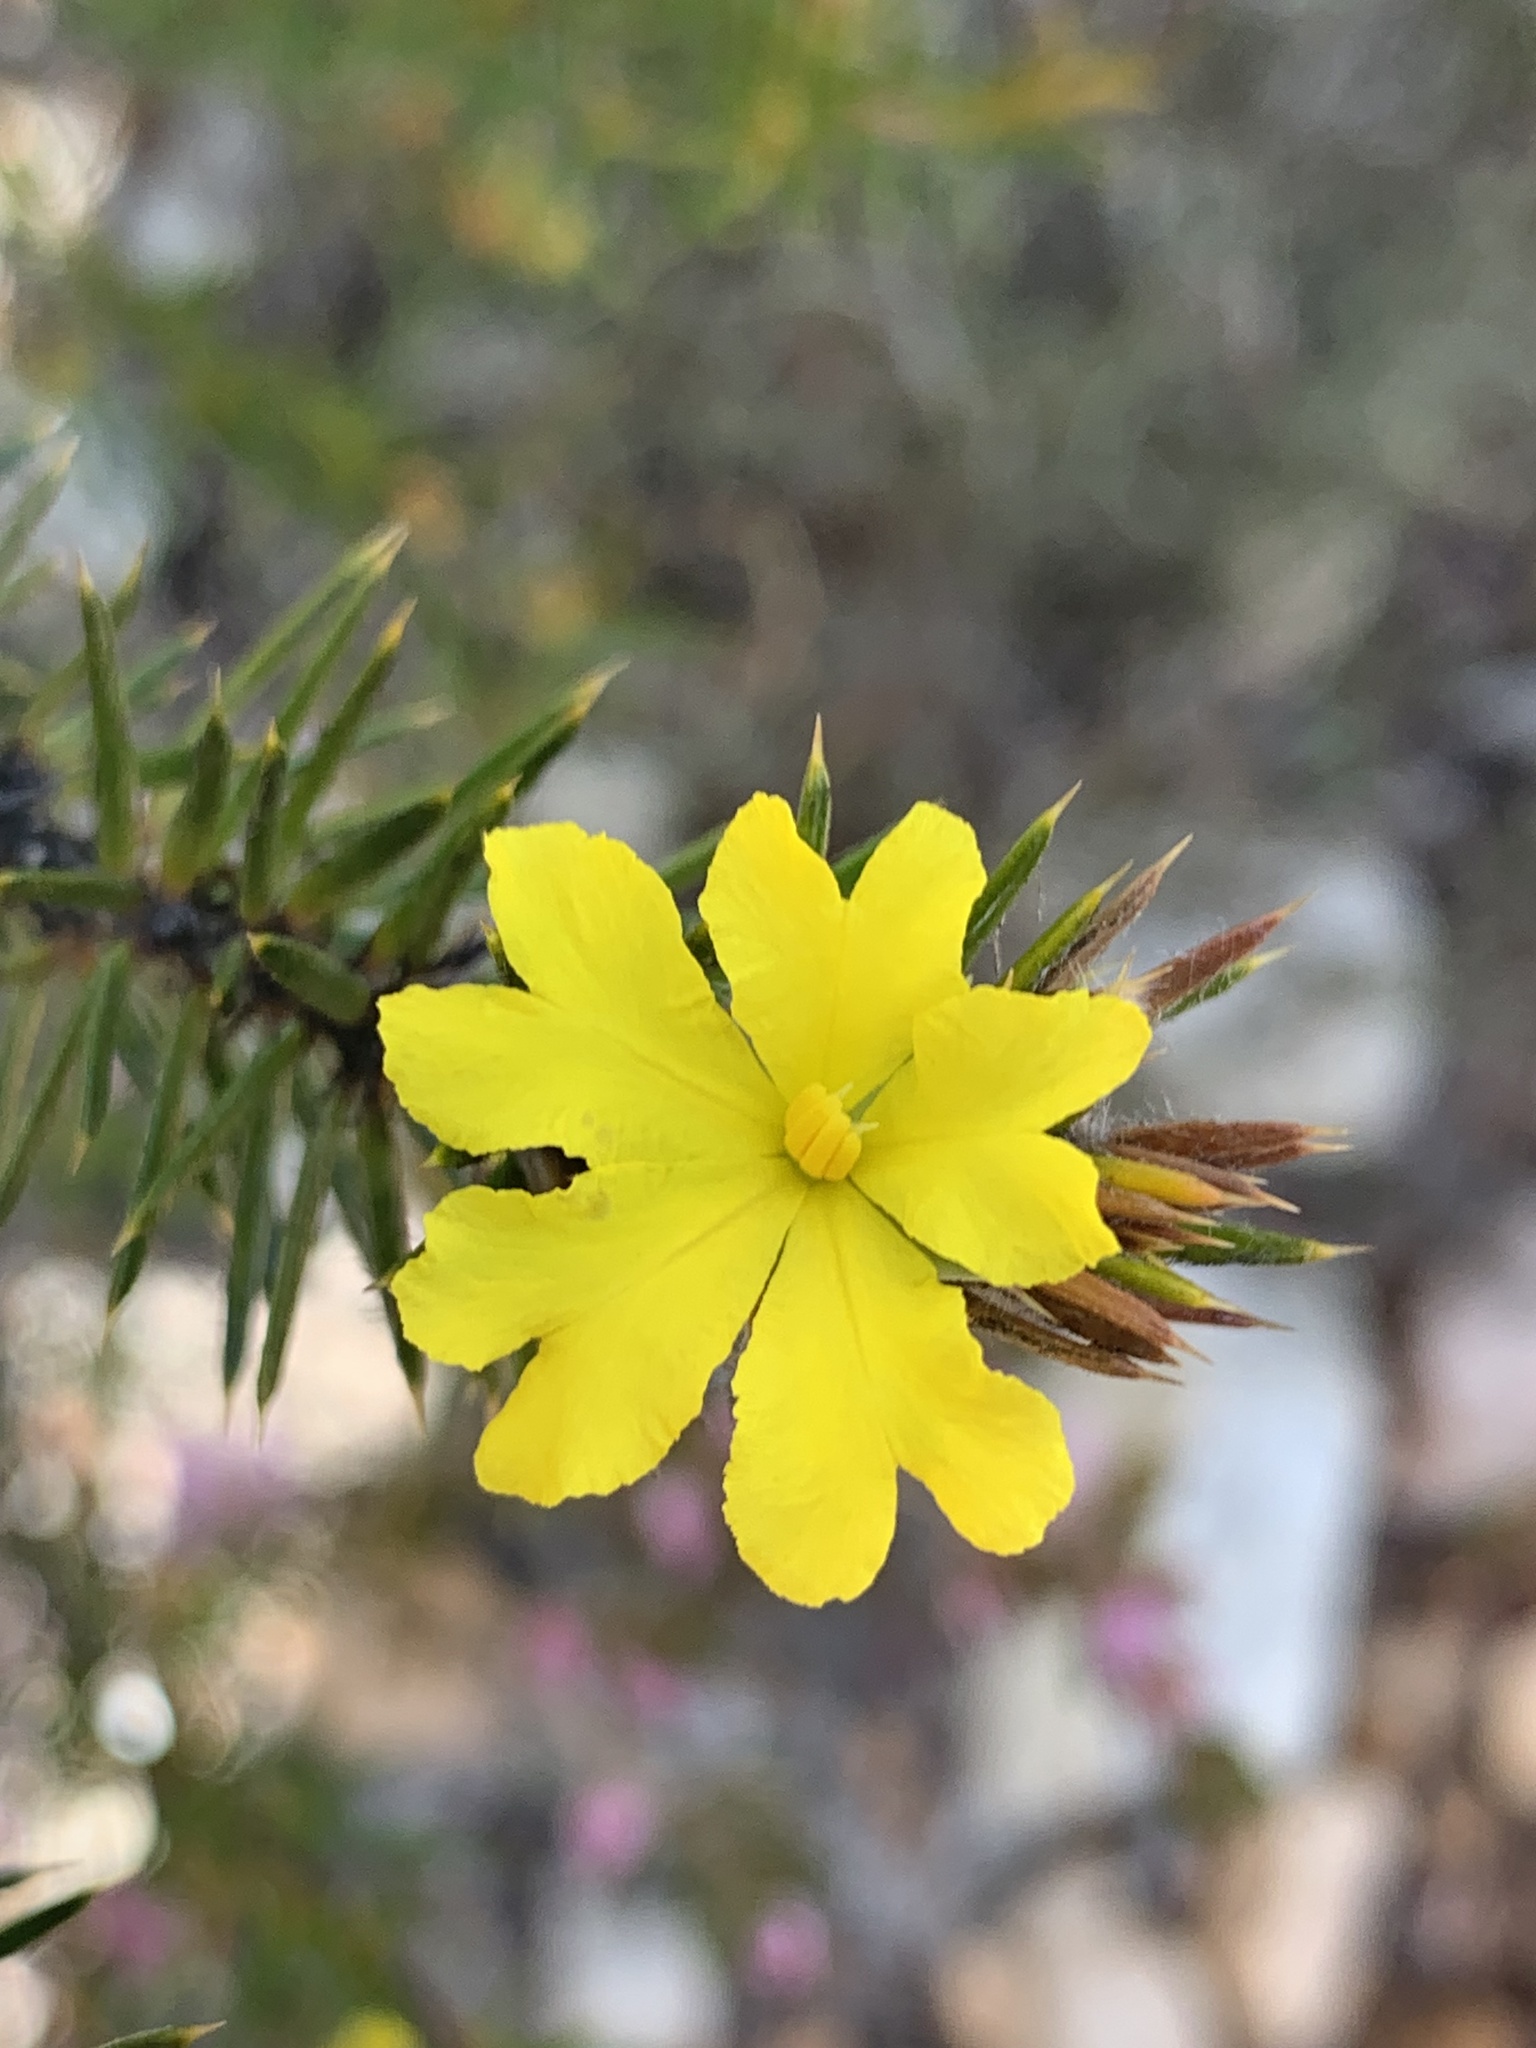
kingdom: Plantae
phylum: Tracheophyta
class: Magnoliopsida
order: Dilleniales
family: Dilleniaceae
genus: Hibbertia
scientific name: Hibbertia mucronata
